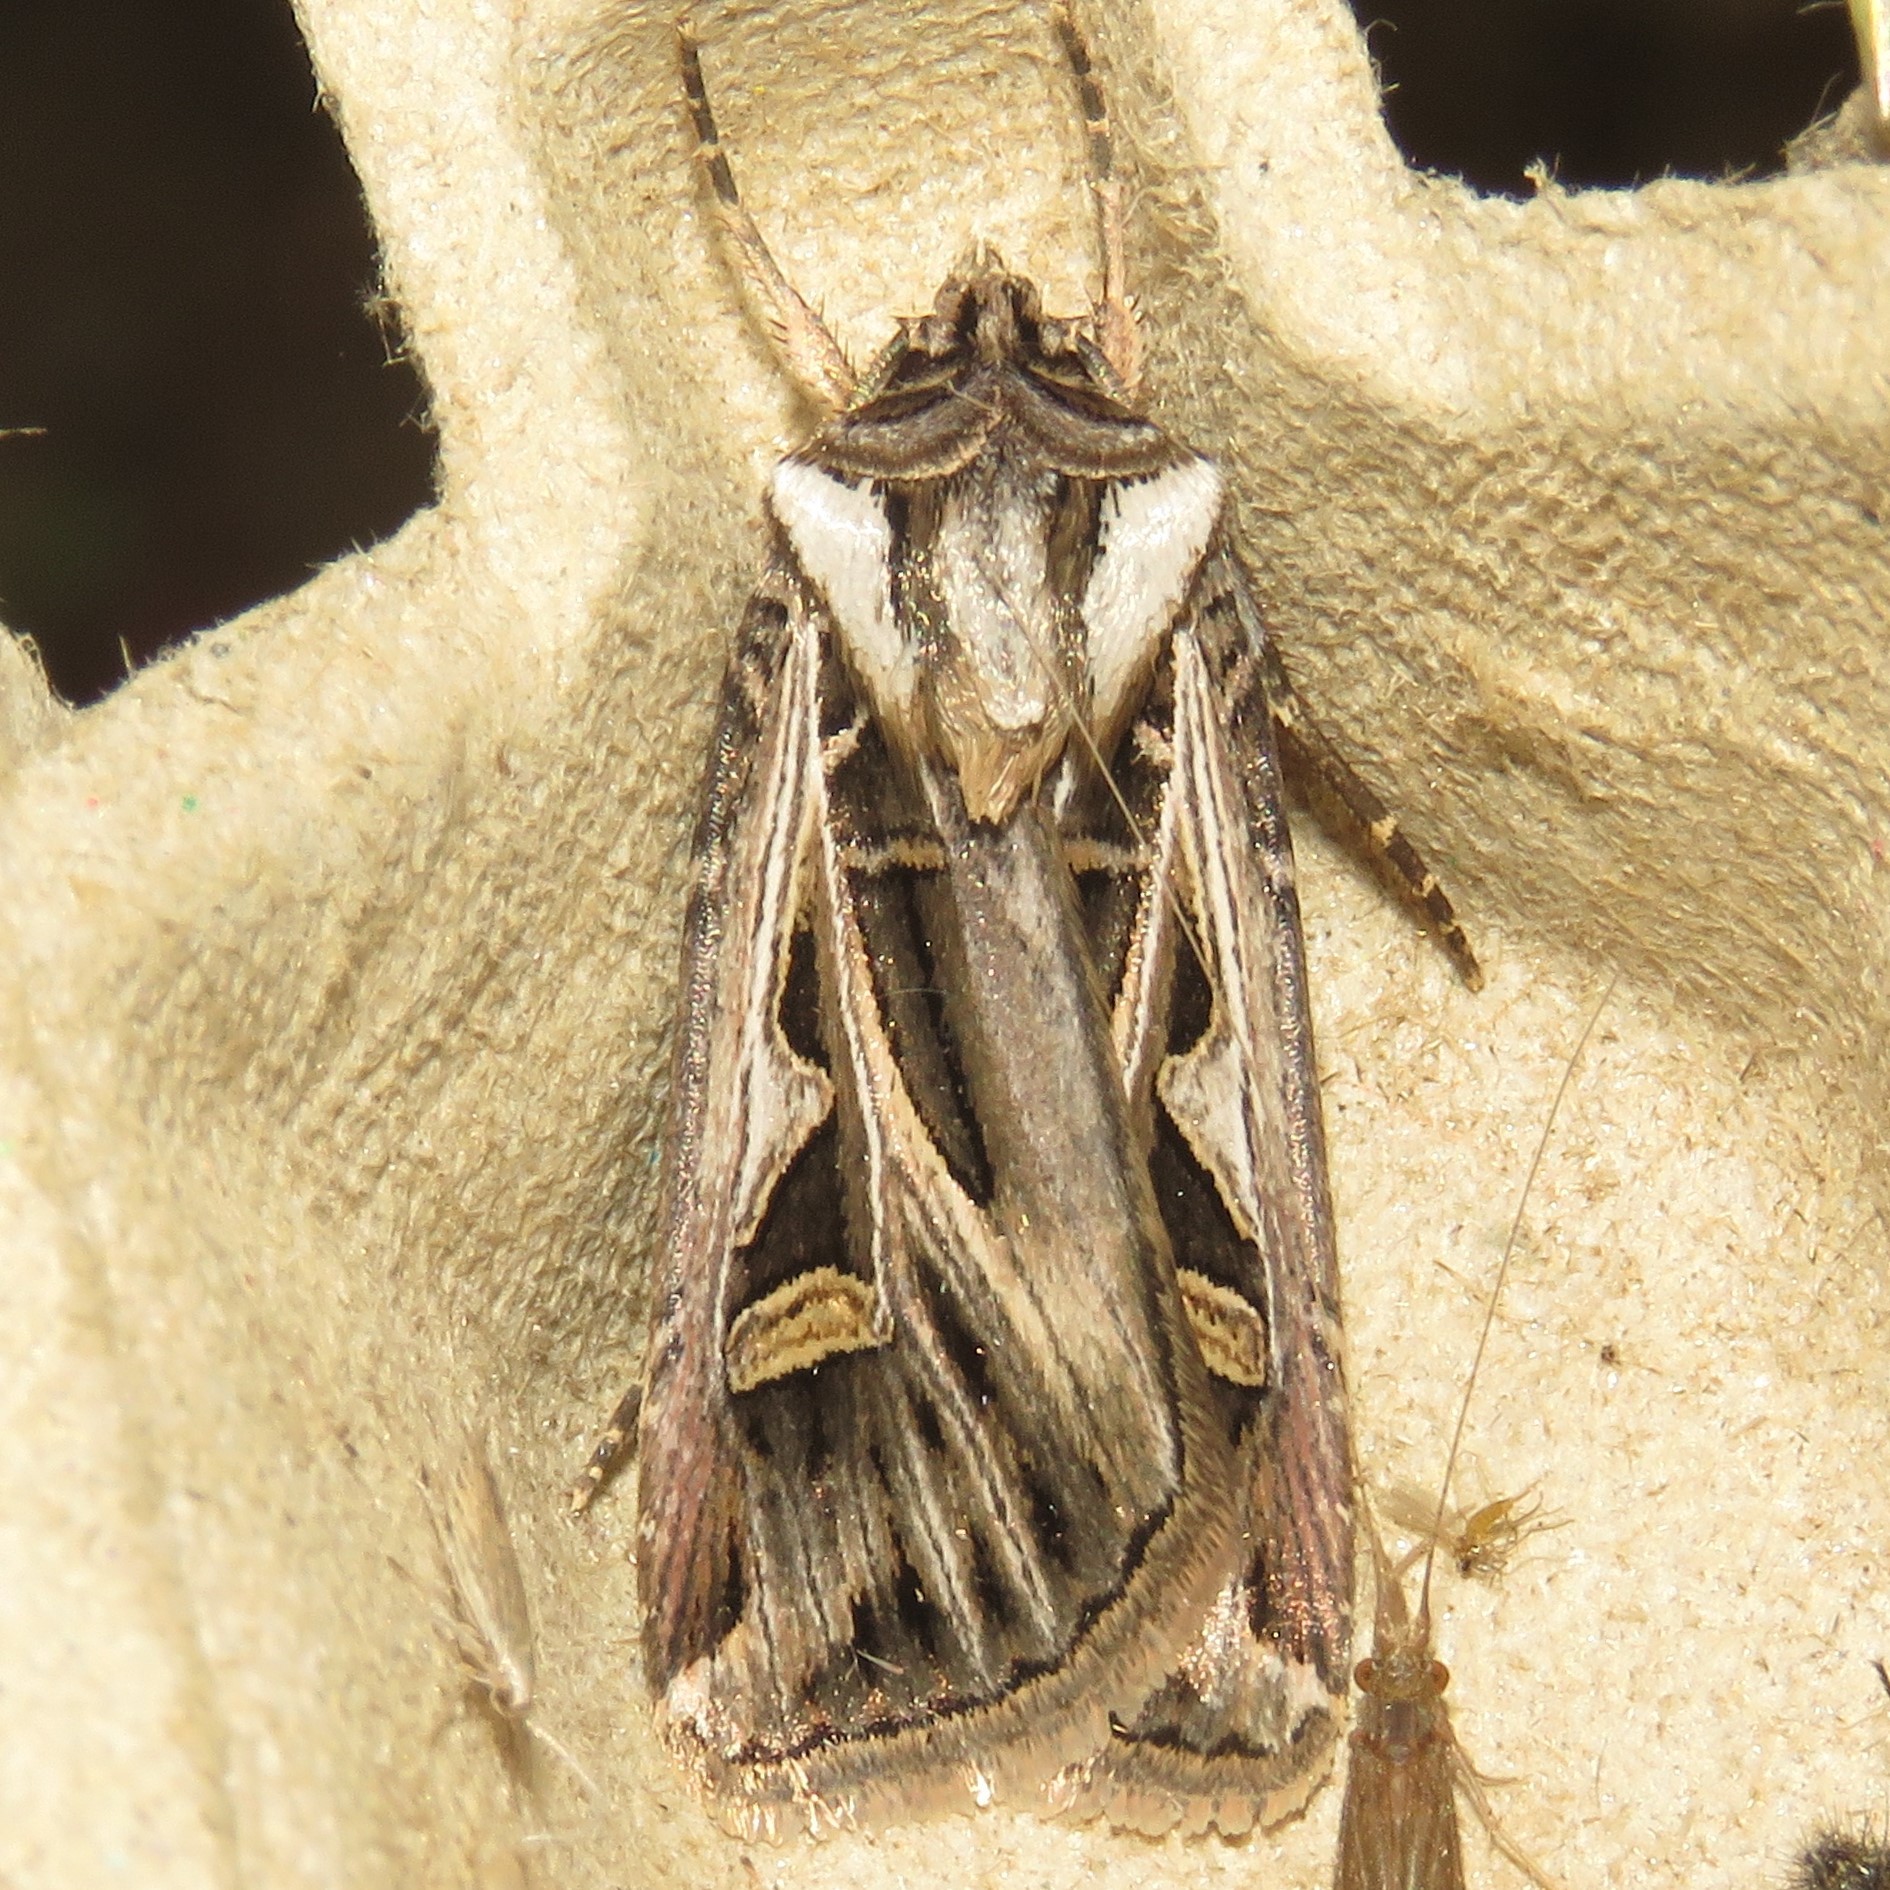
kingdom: Animalia
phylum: Arthropoda
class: Insecta
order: Lepidoptera
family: Noctuidae
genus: Feltia
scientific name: Feltia jaculifera
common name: Dingy cutworm moth
